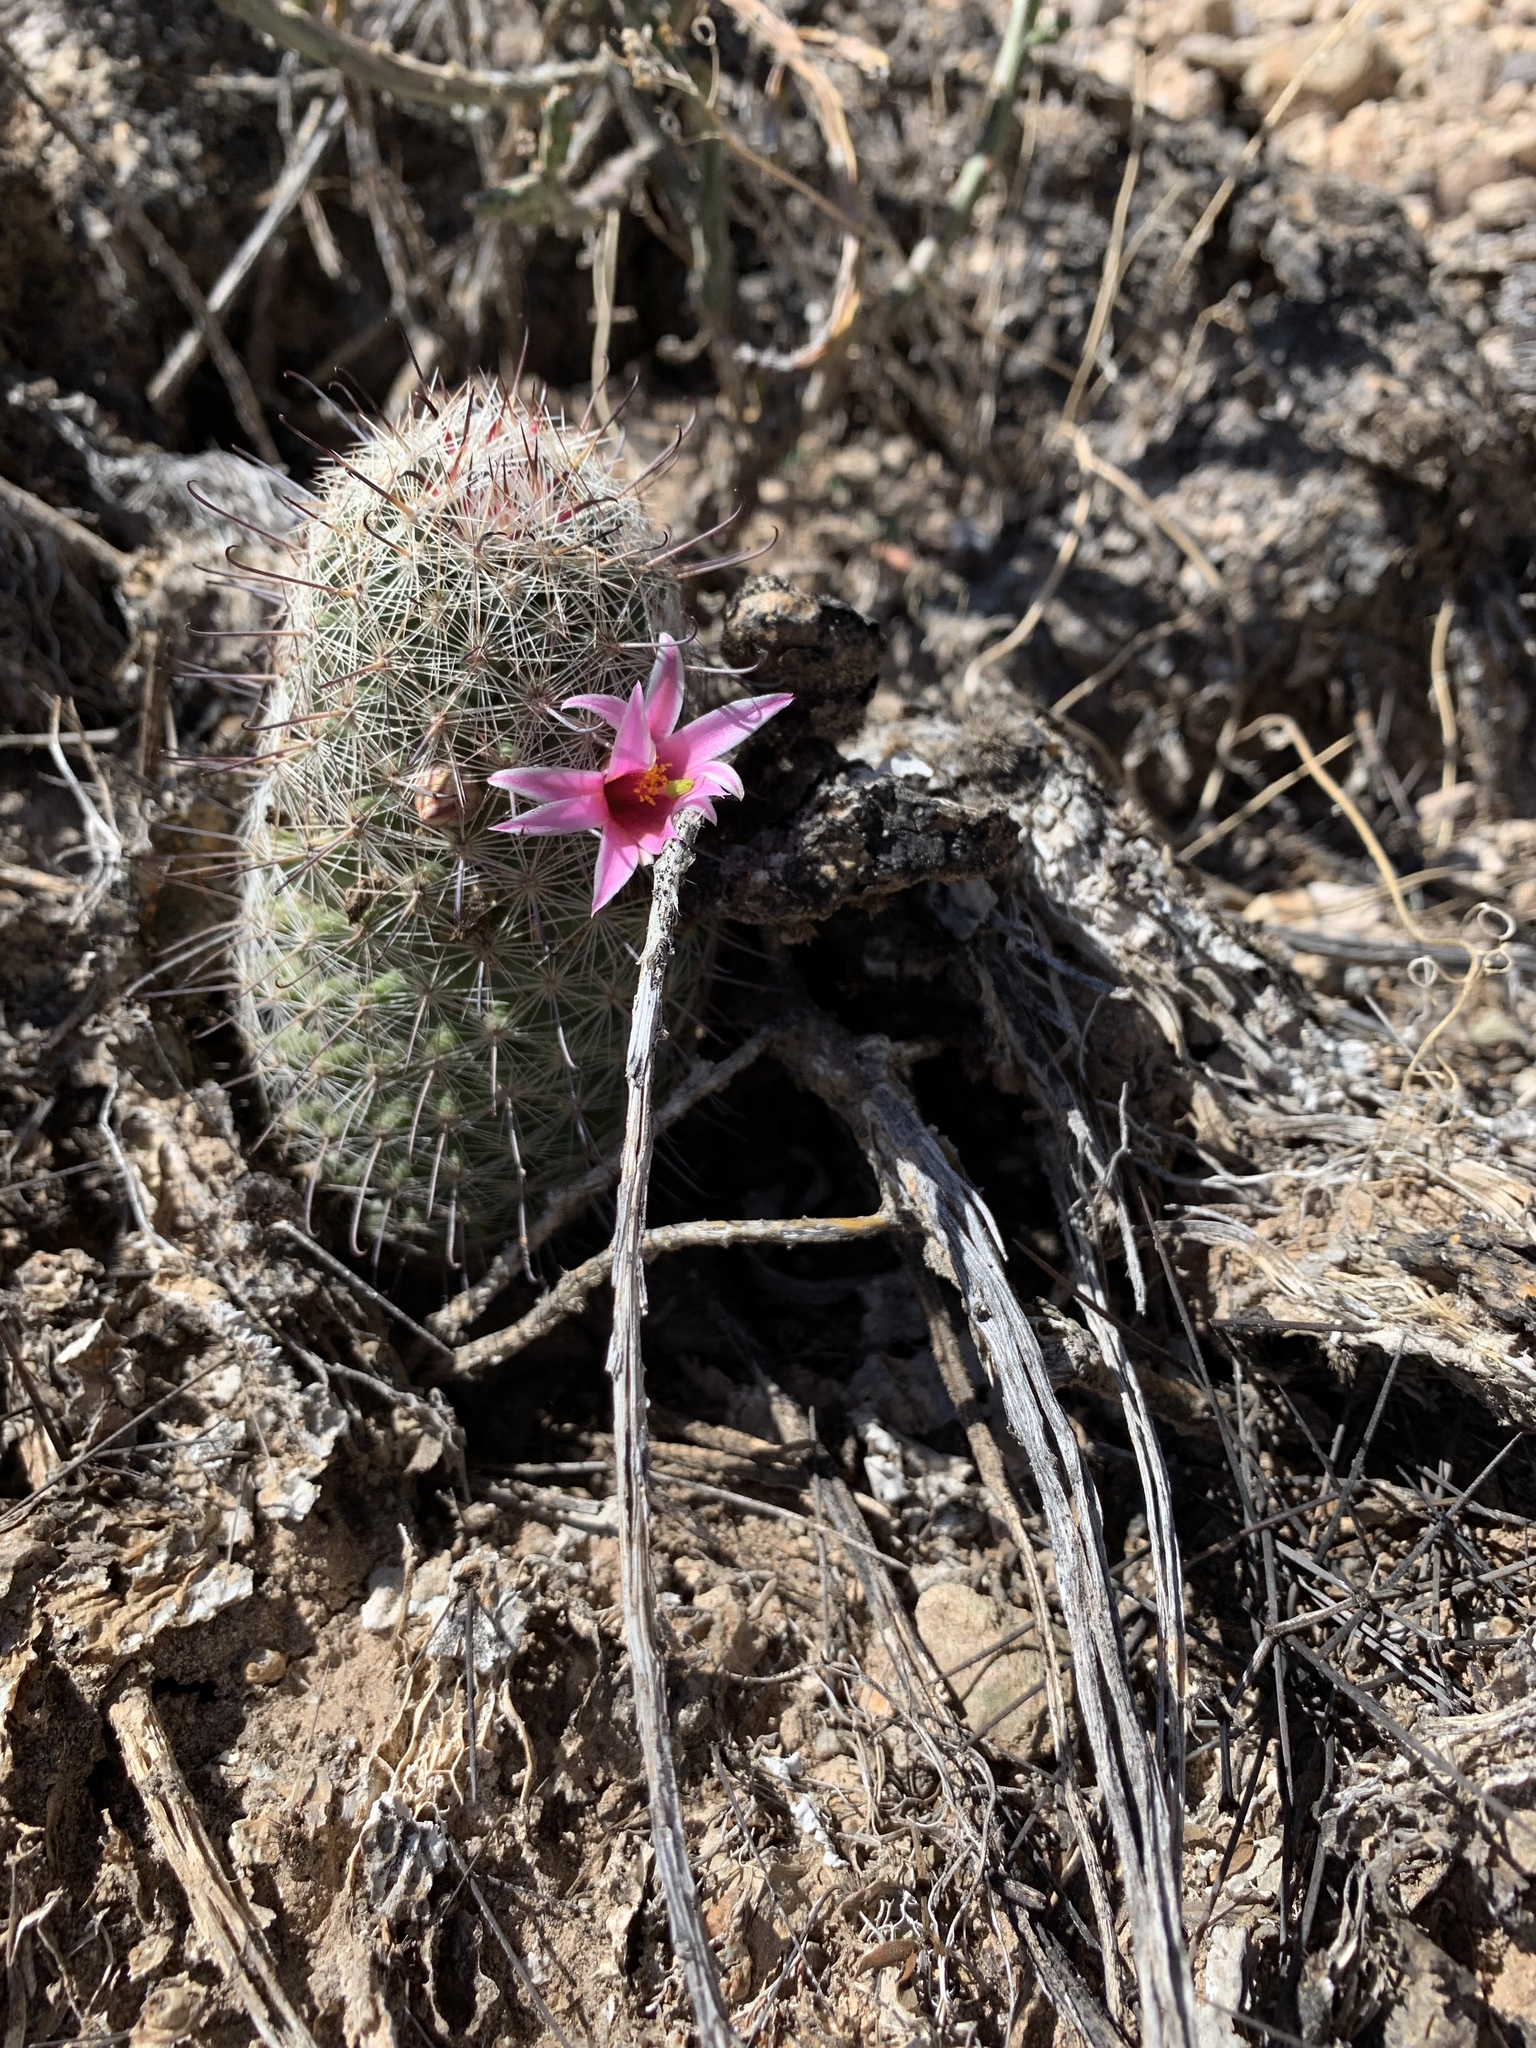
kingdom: Plantae
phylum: Tracheophyta
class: Magnoliopsida
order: Caryophyllales
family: Cactaceae
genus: Cochemiea
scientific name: Cochemiea grahamii
